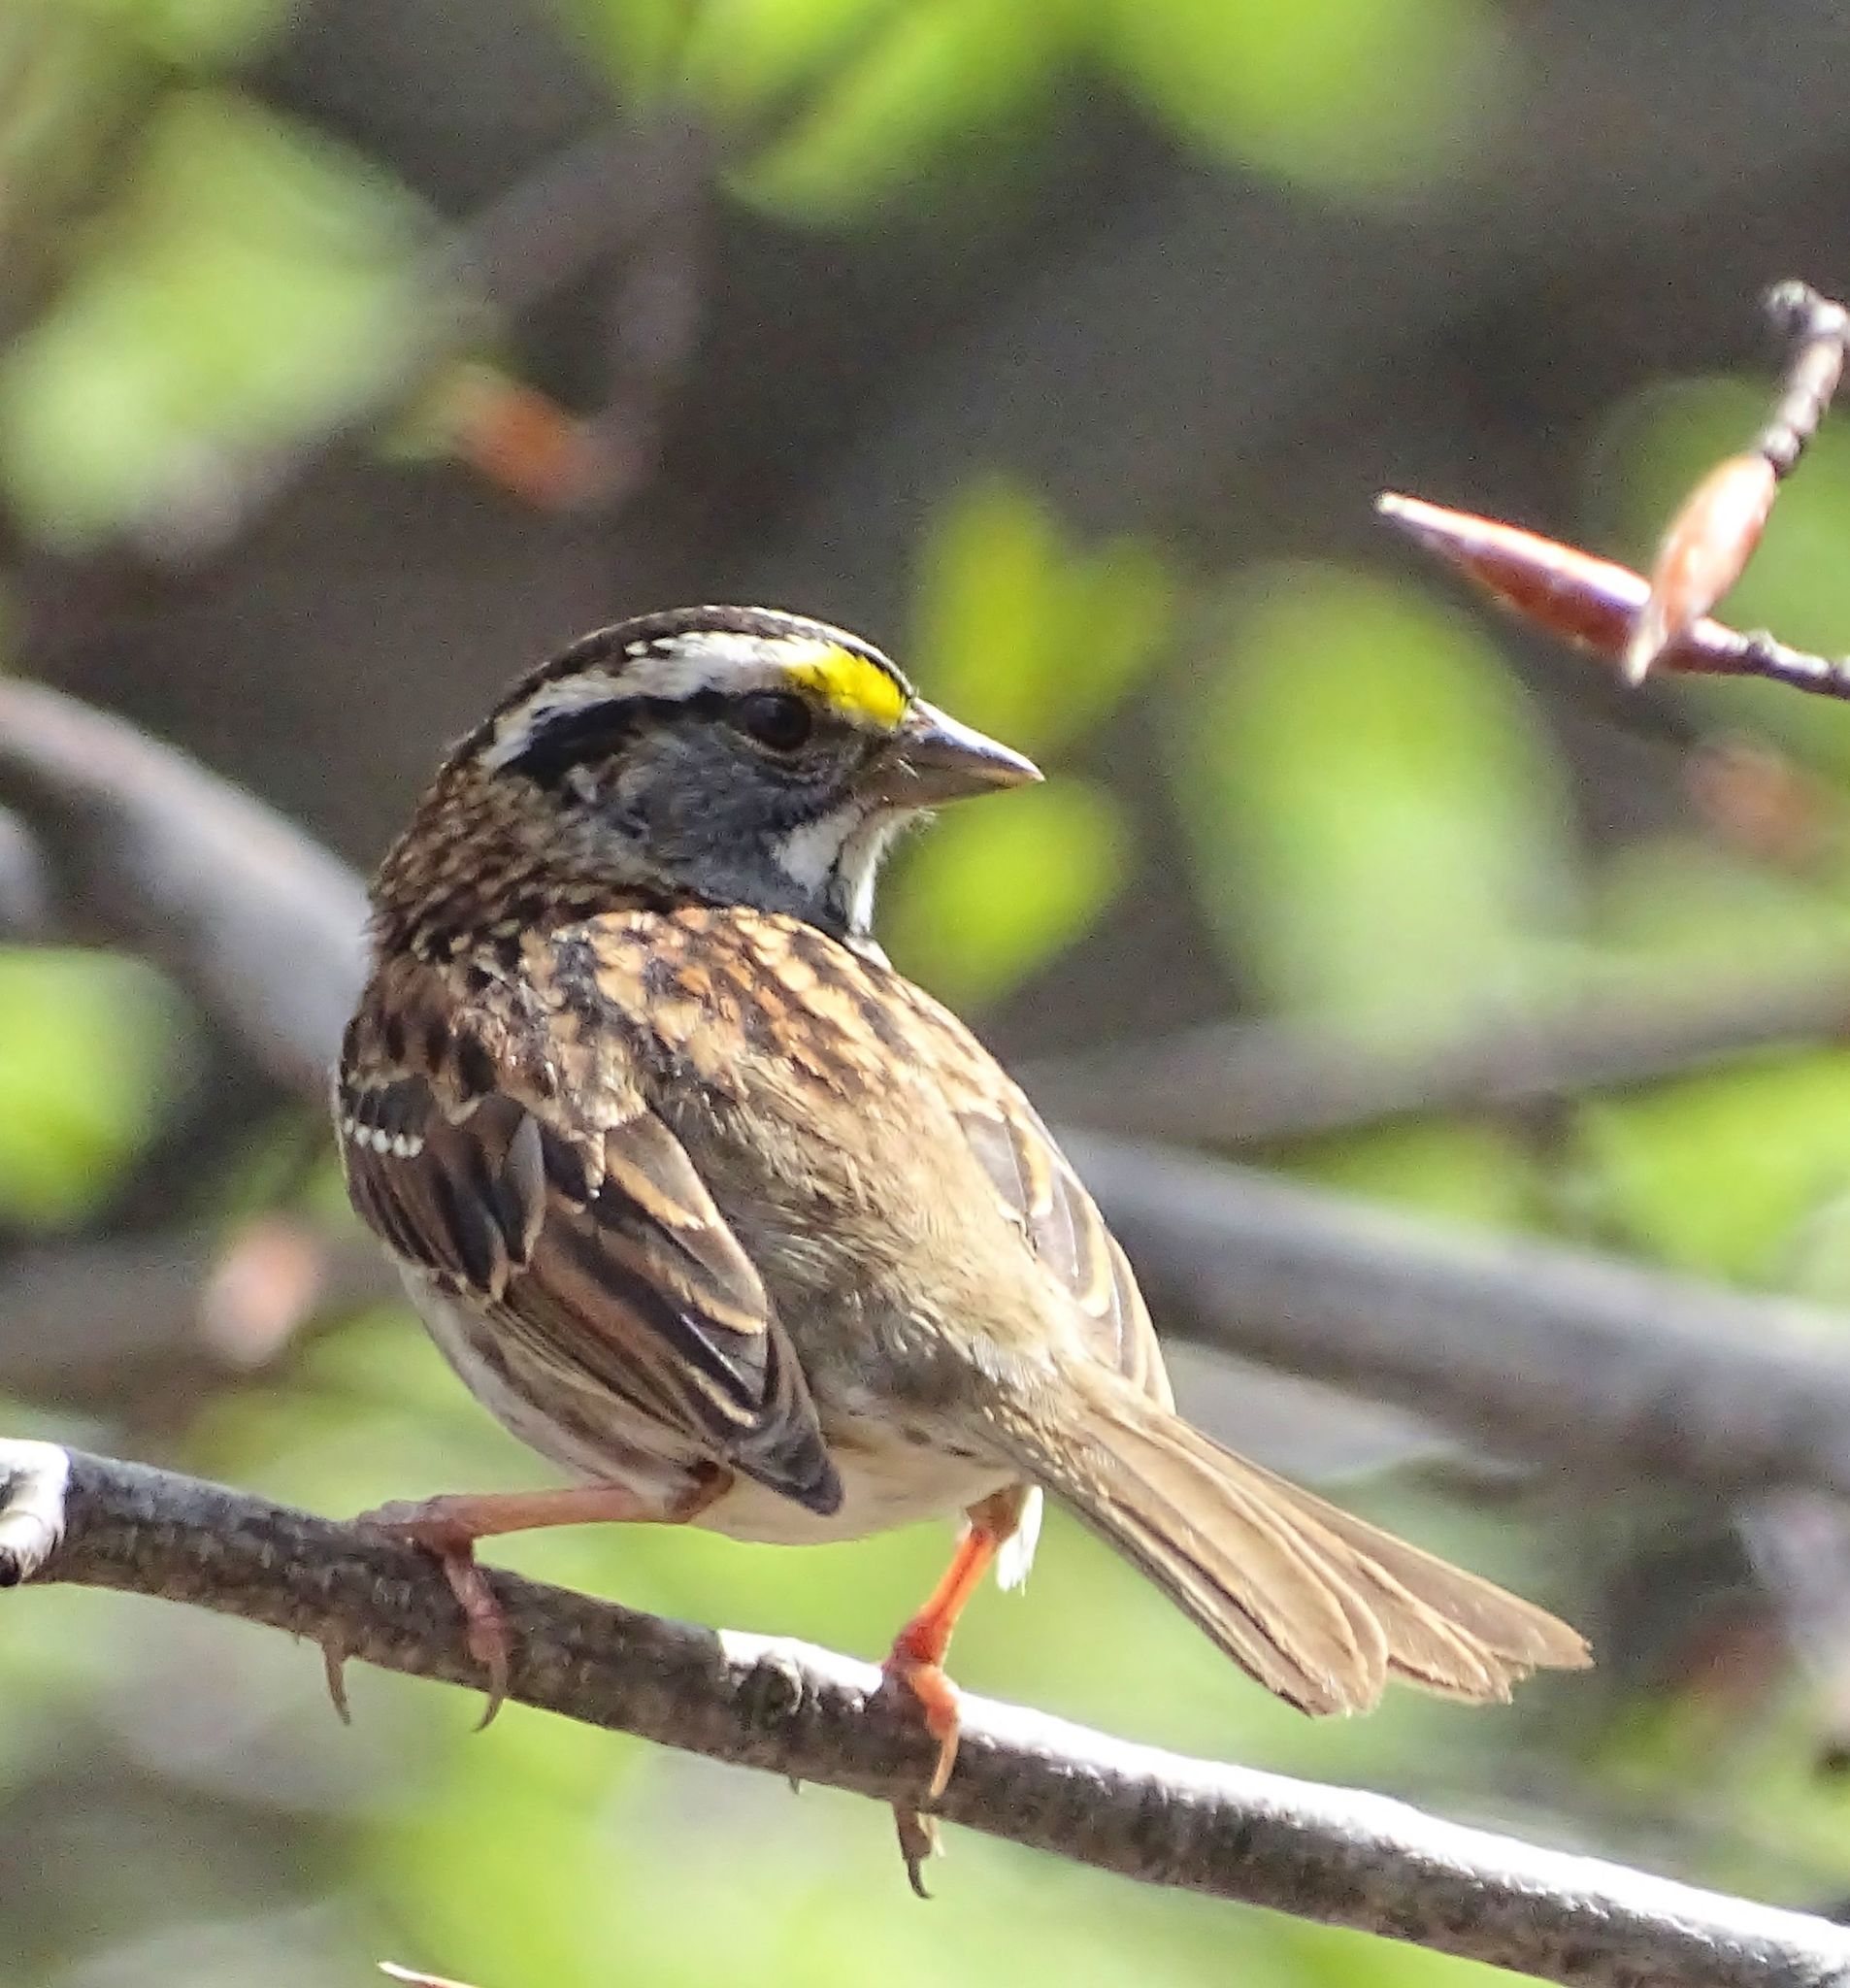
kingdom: Animalia
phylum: Chordata
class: Aves
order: Passeriformes
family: Passerellidae
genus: Zonotrichia
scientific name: Zonotrichia albicollis
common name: White-throated sparrow
